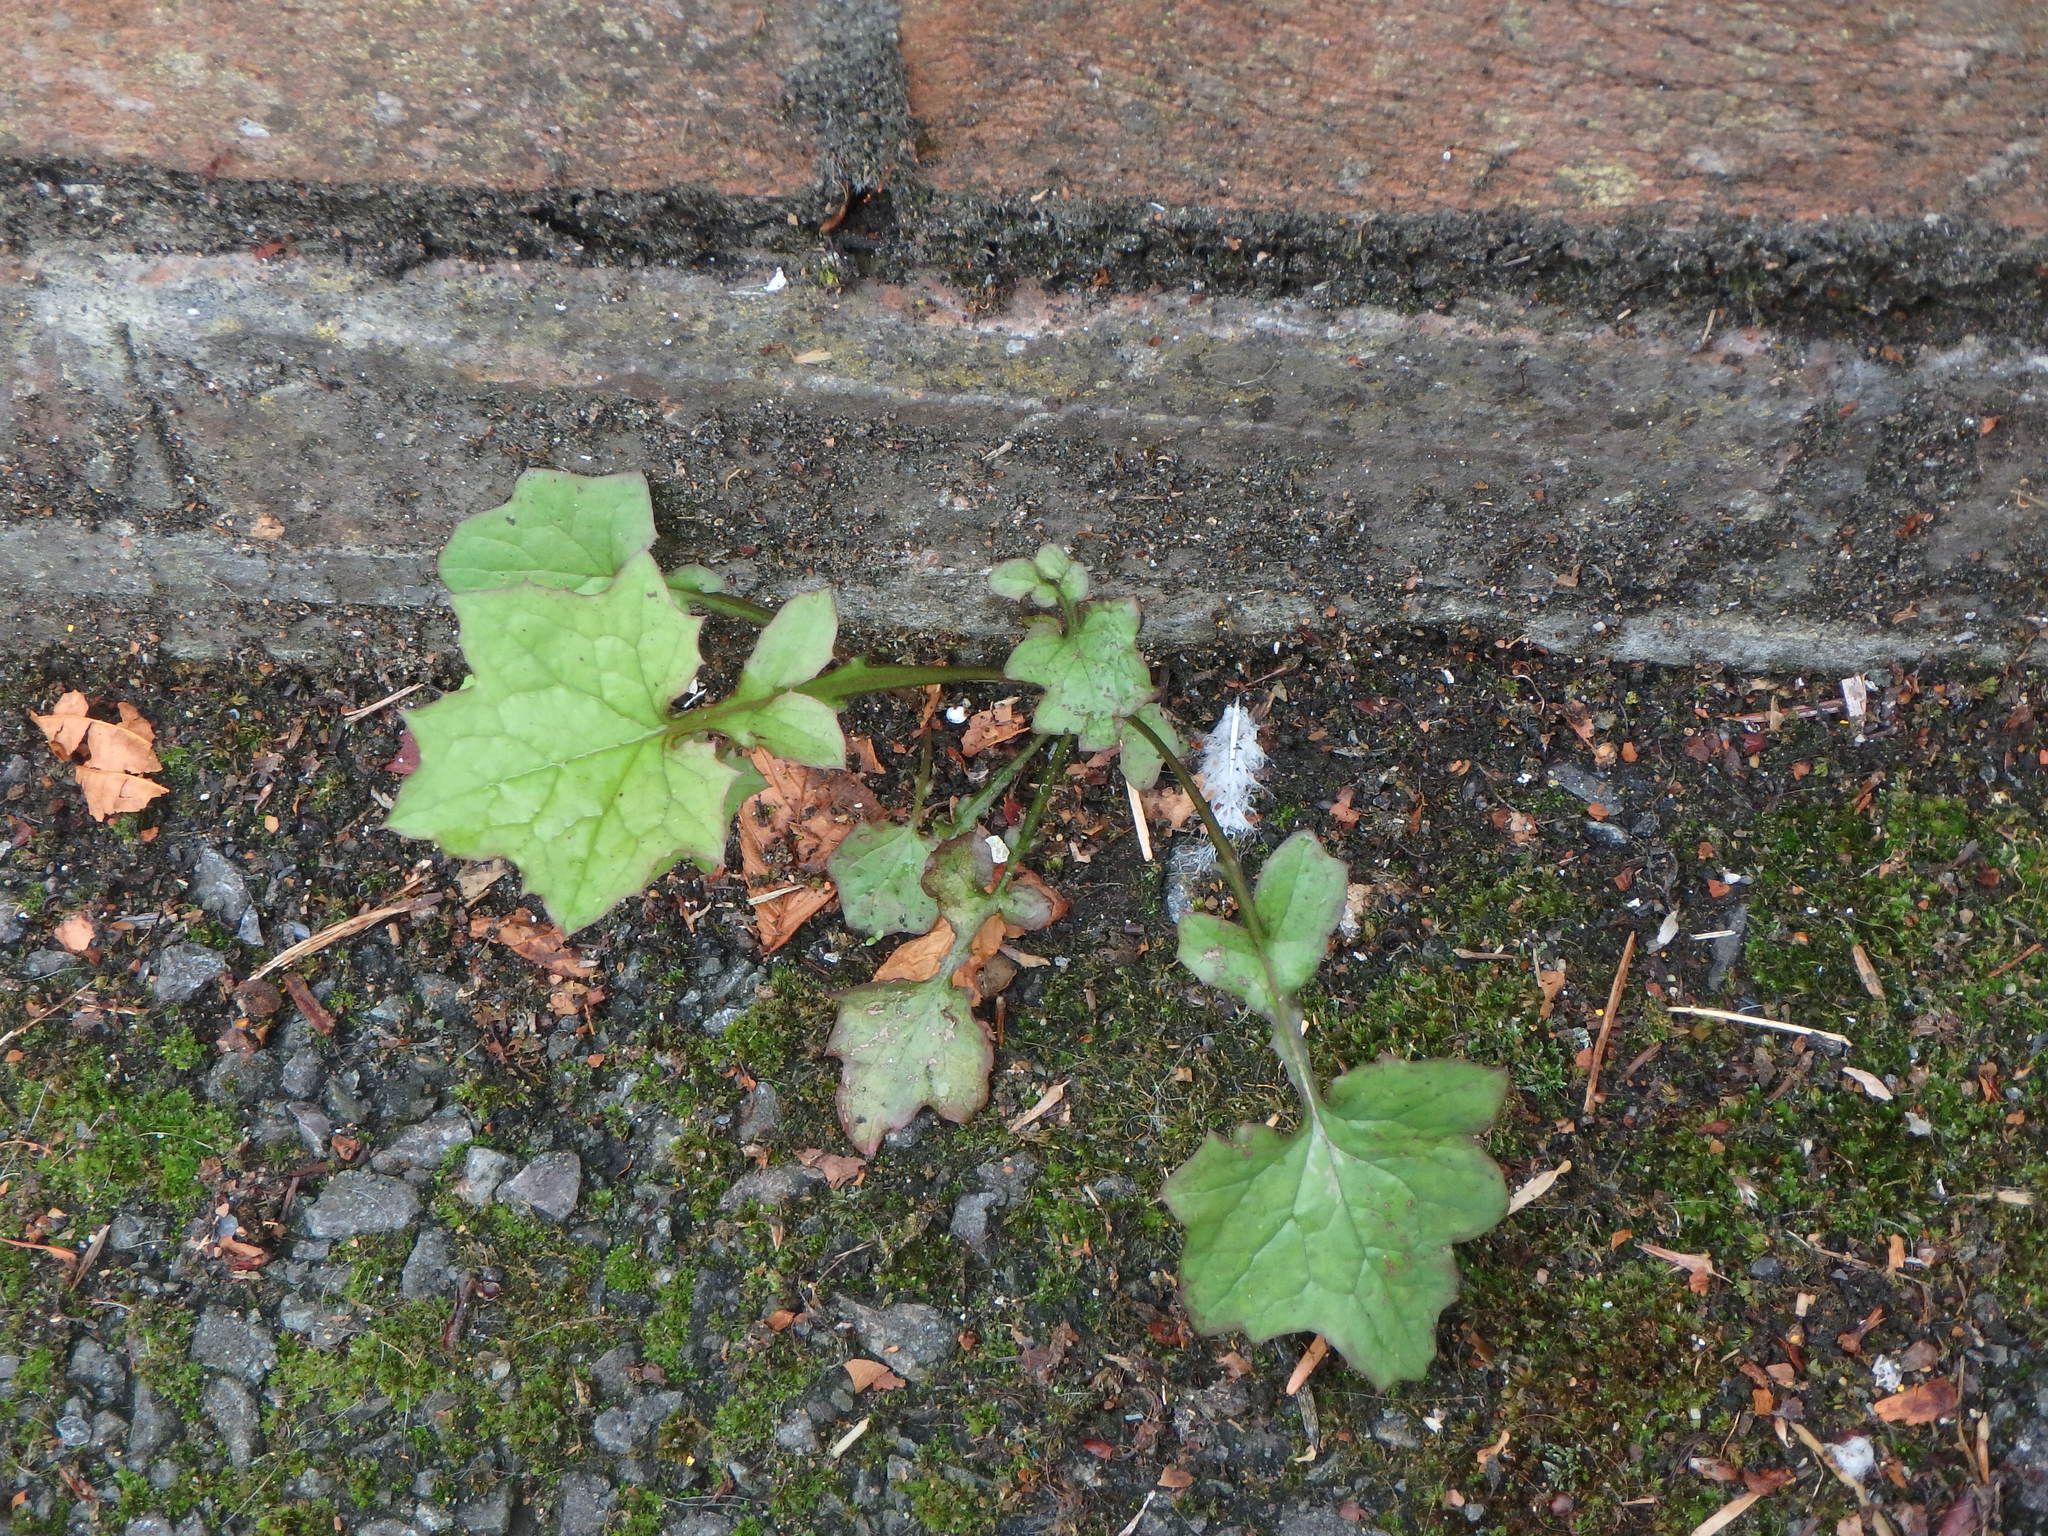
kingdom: Plantae
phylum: Tracheophyta
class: Magnoliopsida
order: Asterales
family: Asteraceae
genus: Mycelis
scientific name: Mycelis muralis
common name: Wall lettuce
